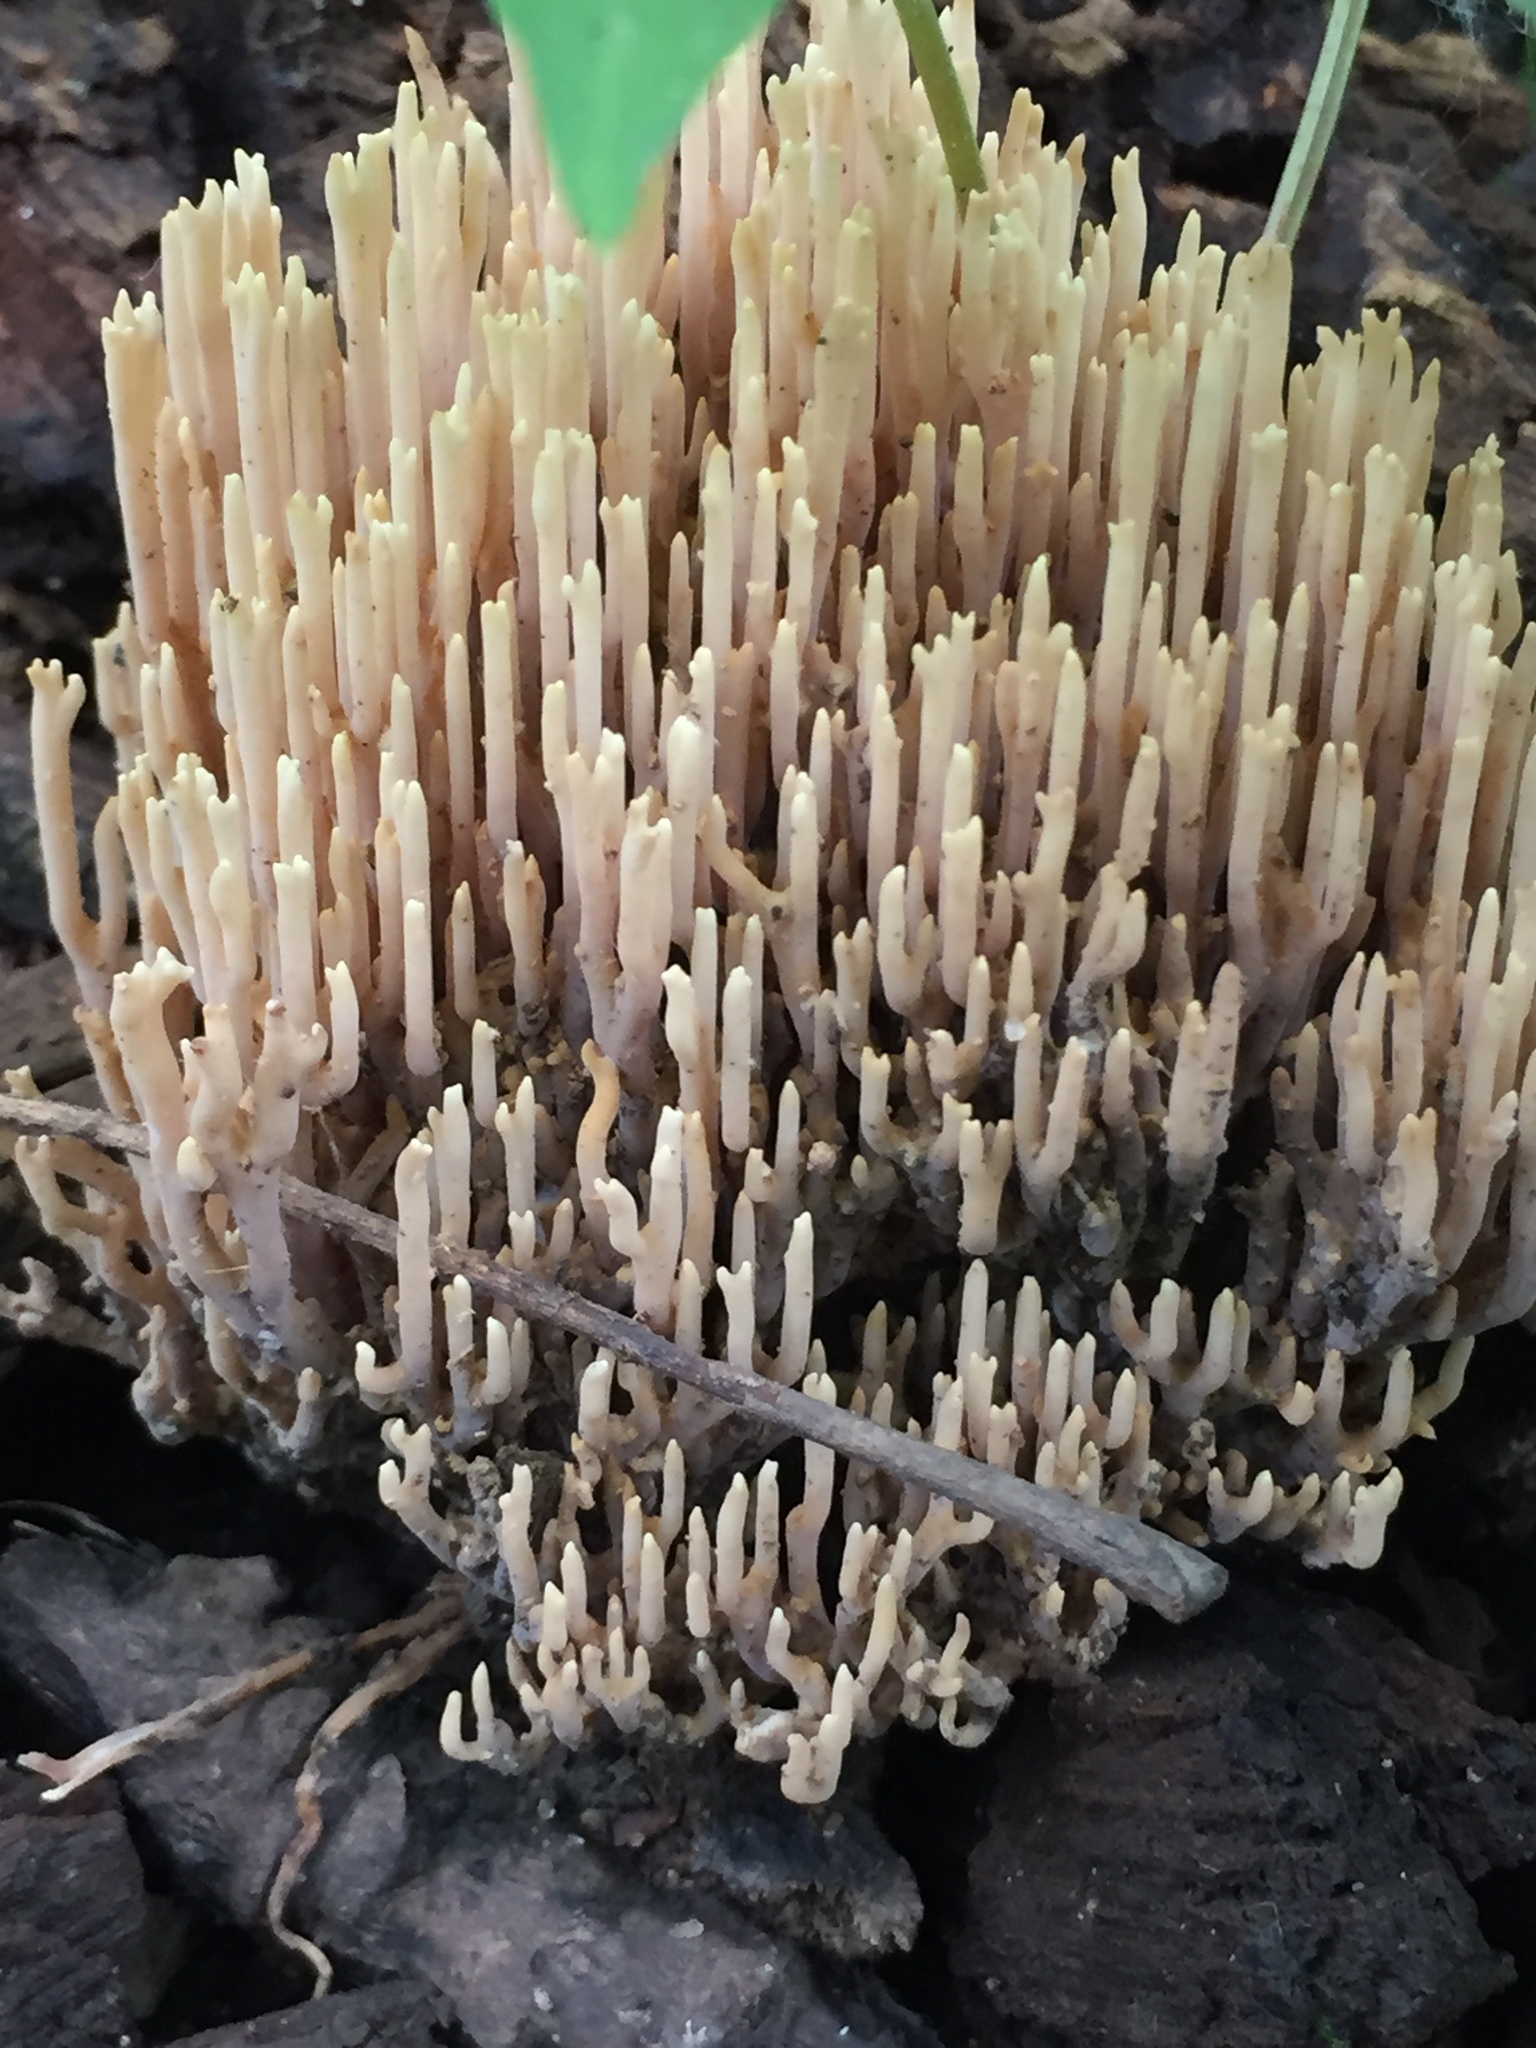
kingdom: Fungi
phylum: Basidiomycota
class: Agaricomycetes
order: Gomphales
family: Gomphaceae
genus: Ramaria
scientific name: Ramaria stricta
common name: Upright coral
